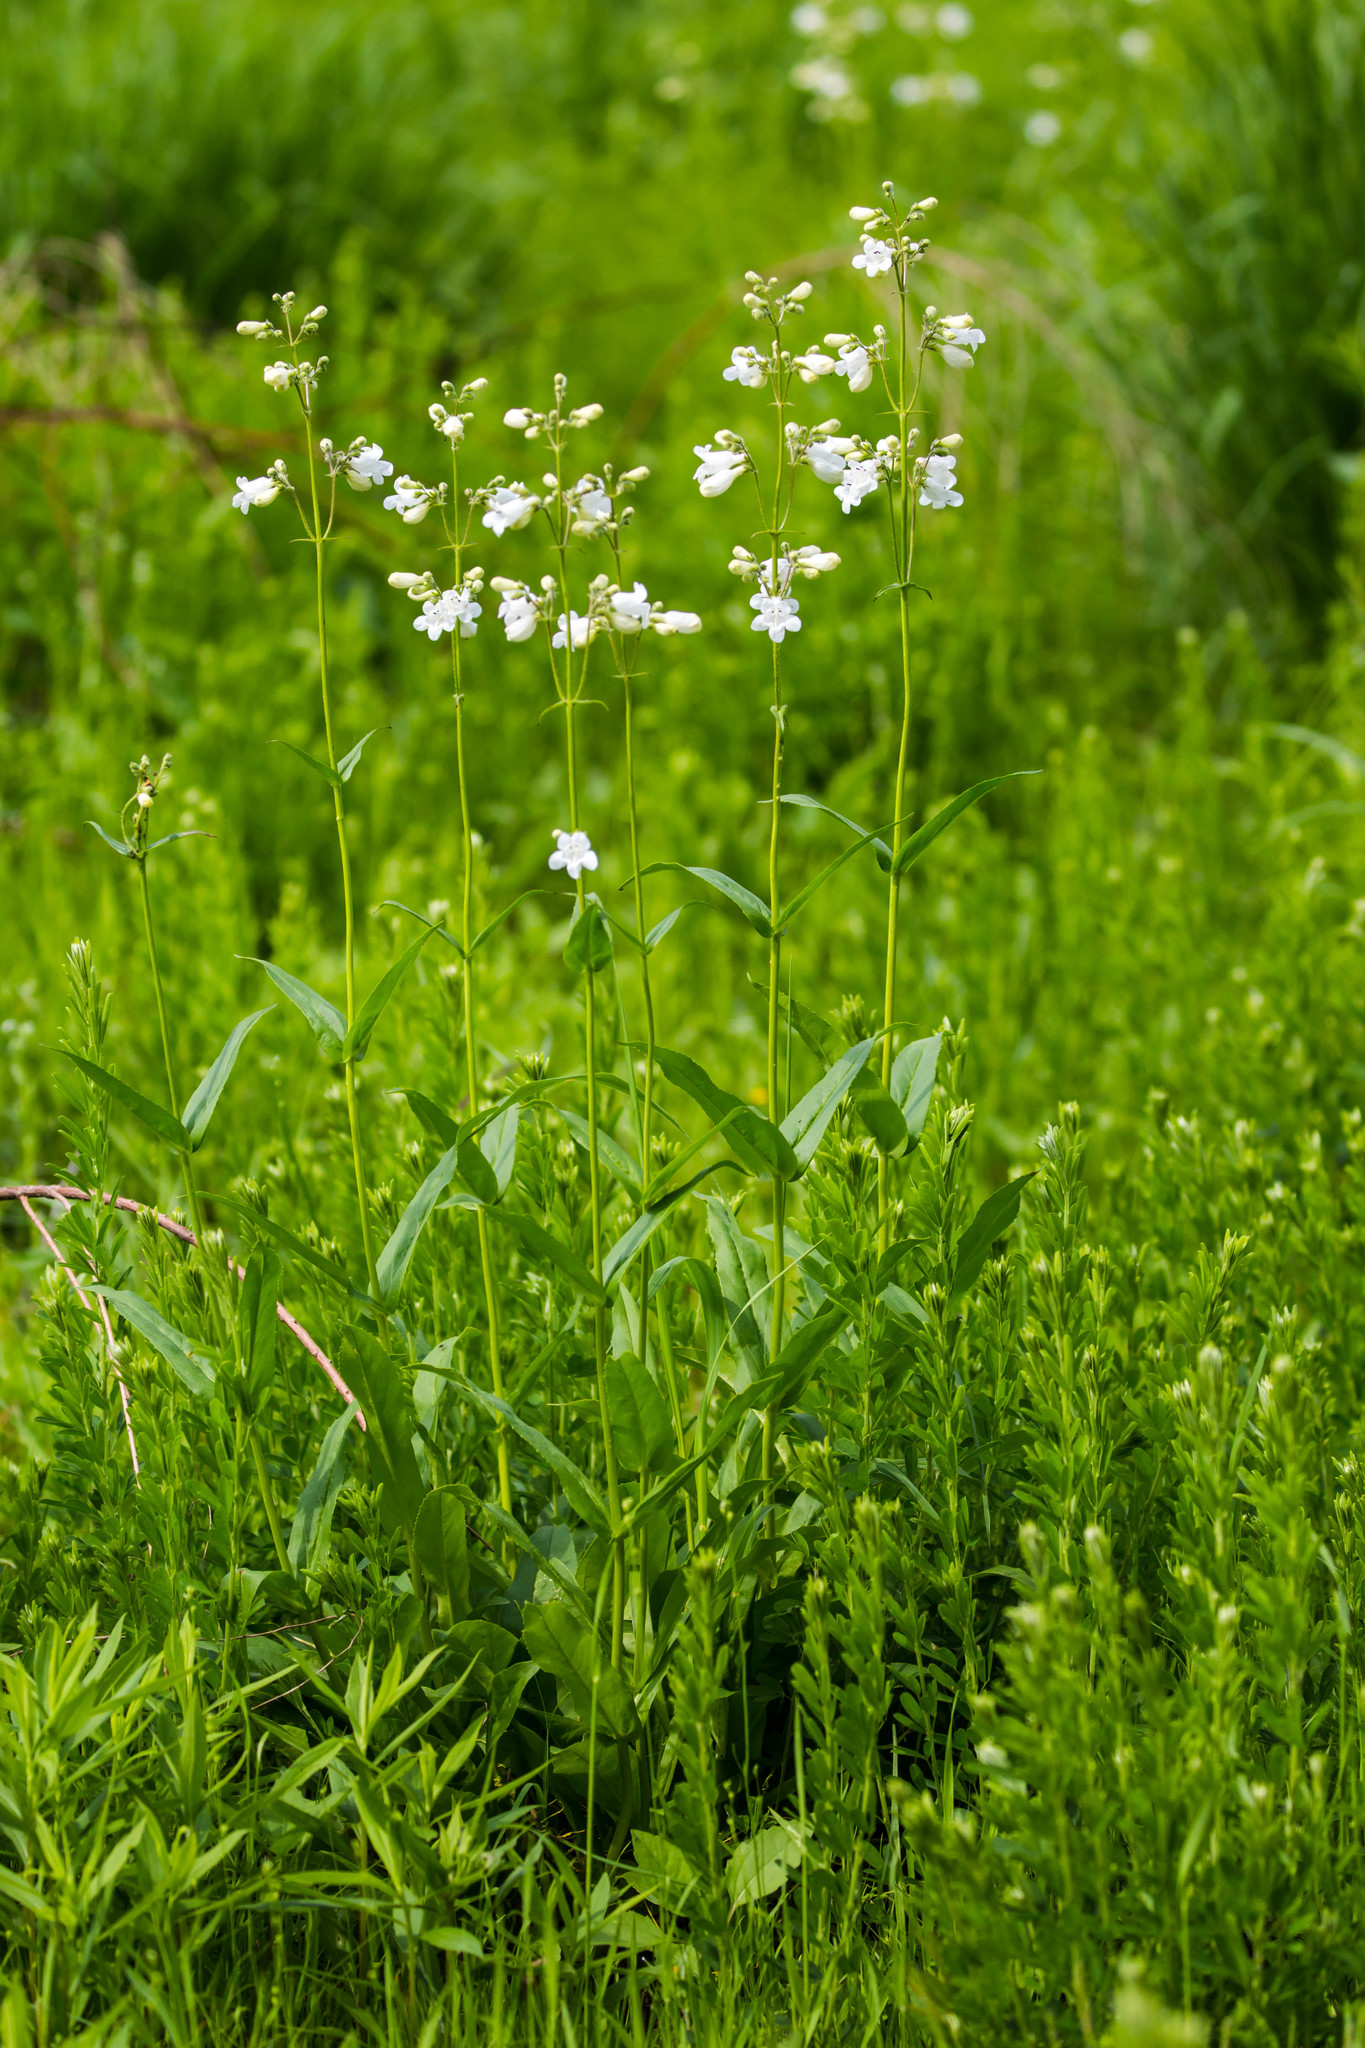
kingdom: Plantae
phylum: Tracheophyta
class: Magnoliopsida
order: Lamiales
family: Plantaginaceae
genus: Penstemon
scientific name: Penstemon digitalis
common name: Foxglove beardtongue
